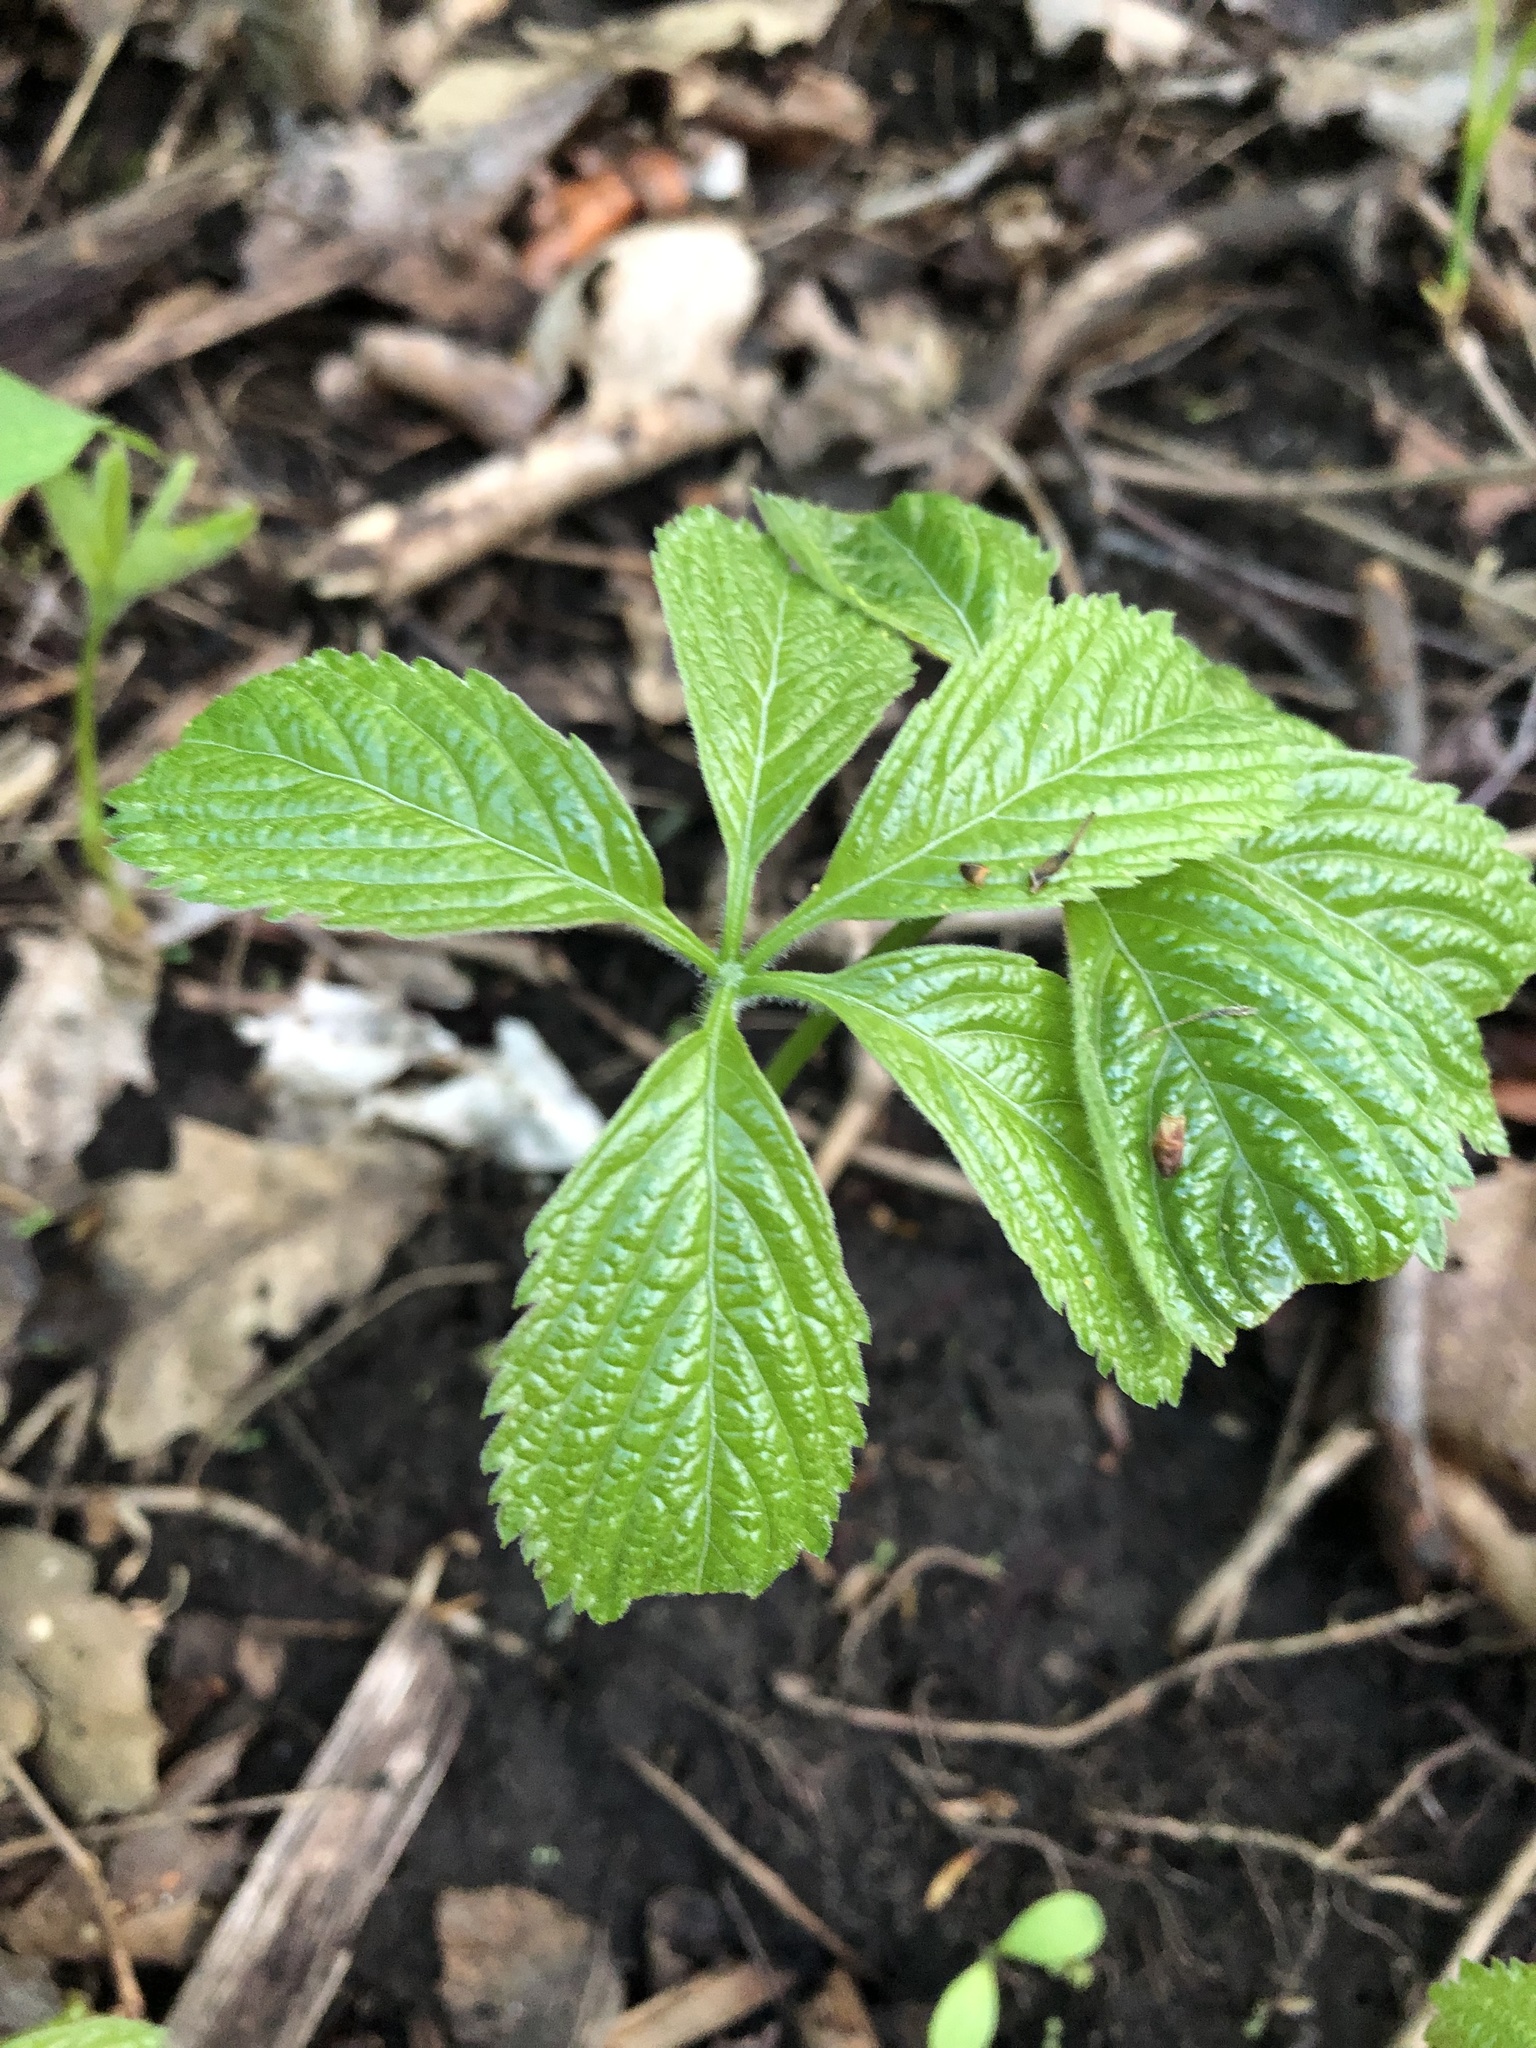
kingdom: Plantae
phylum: Tracheophyta
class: Magnoliopsida
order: Vitales
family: Vitaceae
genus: Parthenocissus
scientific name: Parthenocissus inserta
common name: False virginia-creeper
